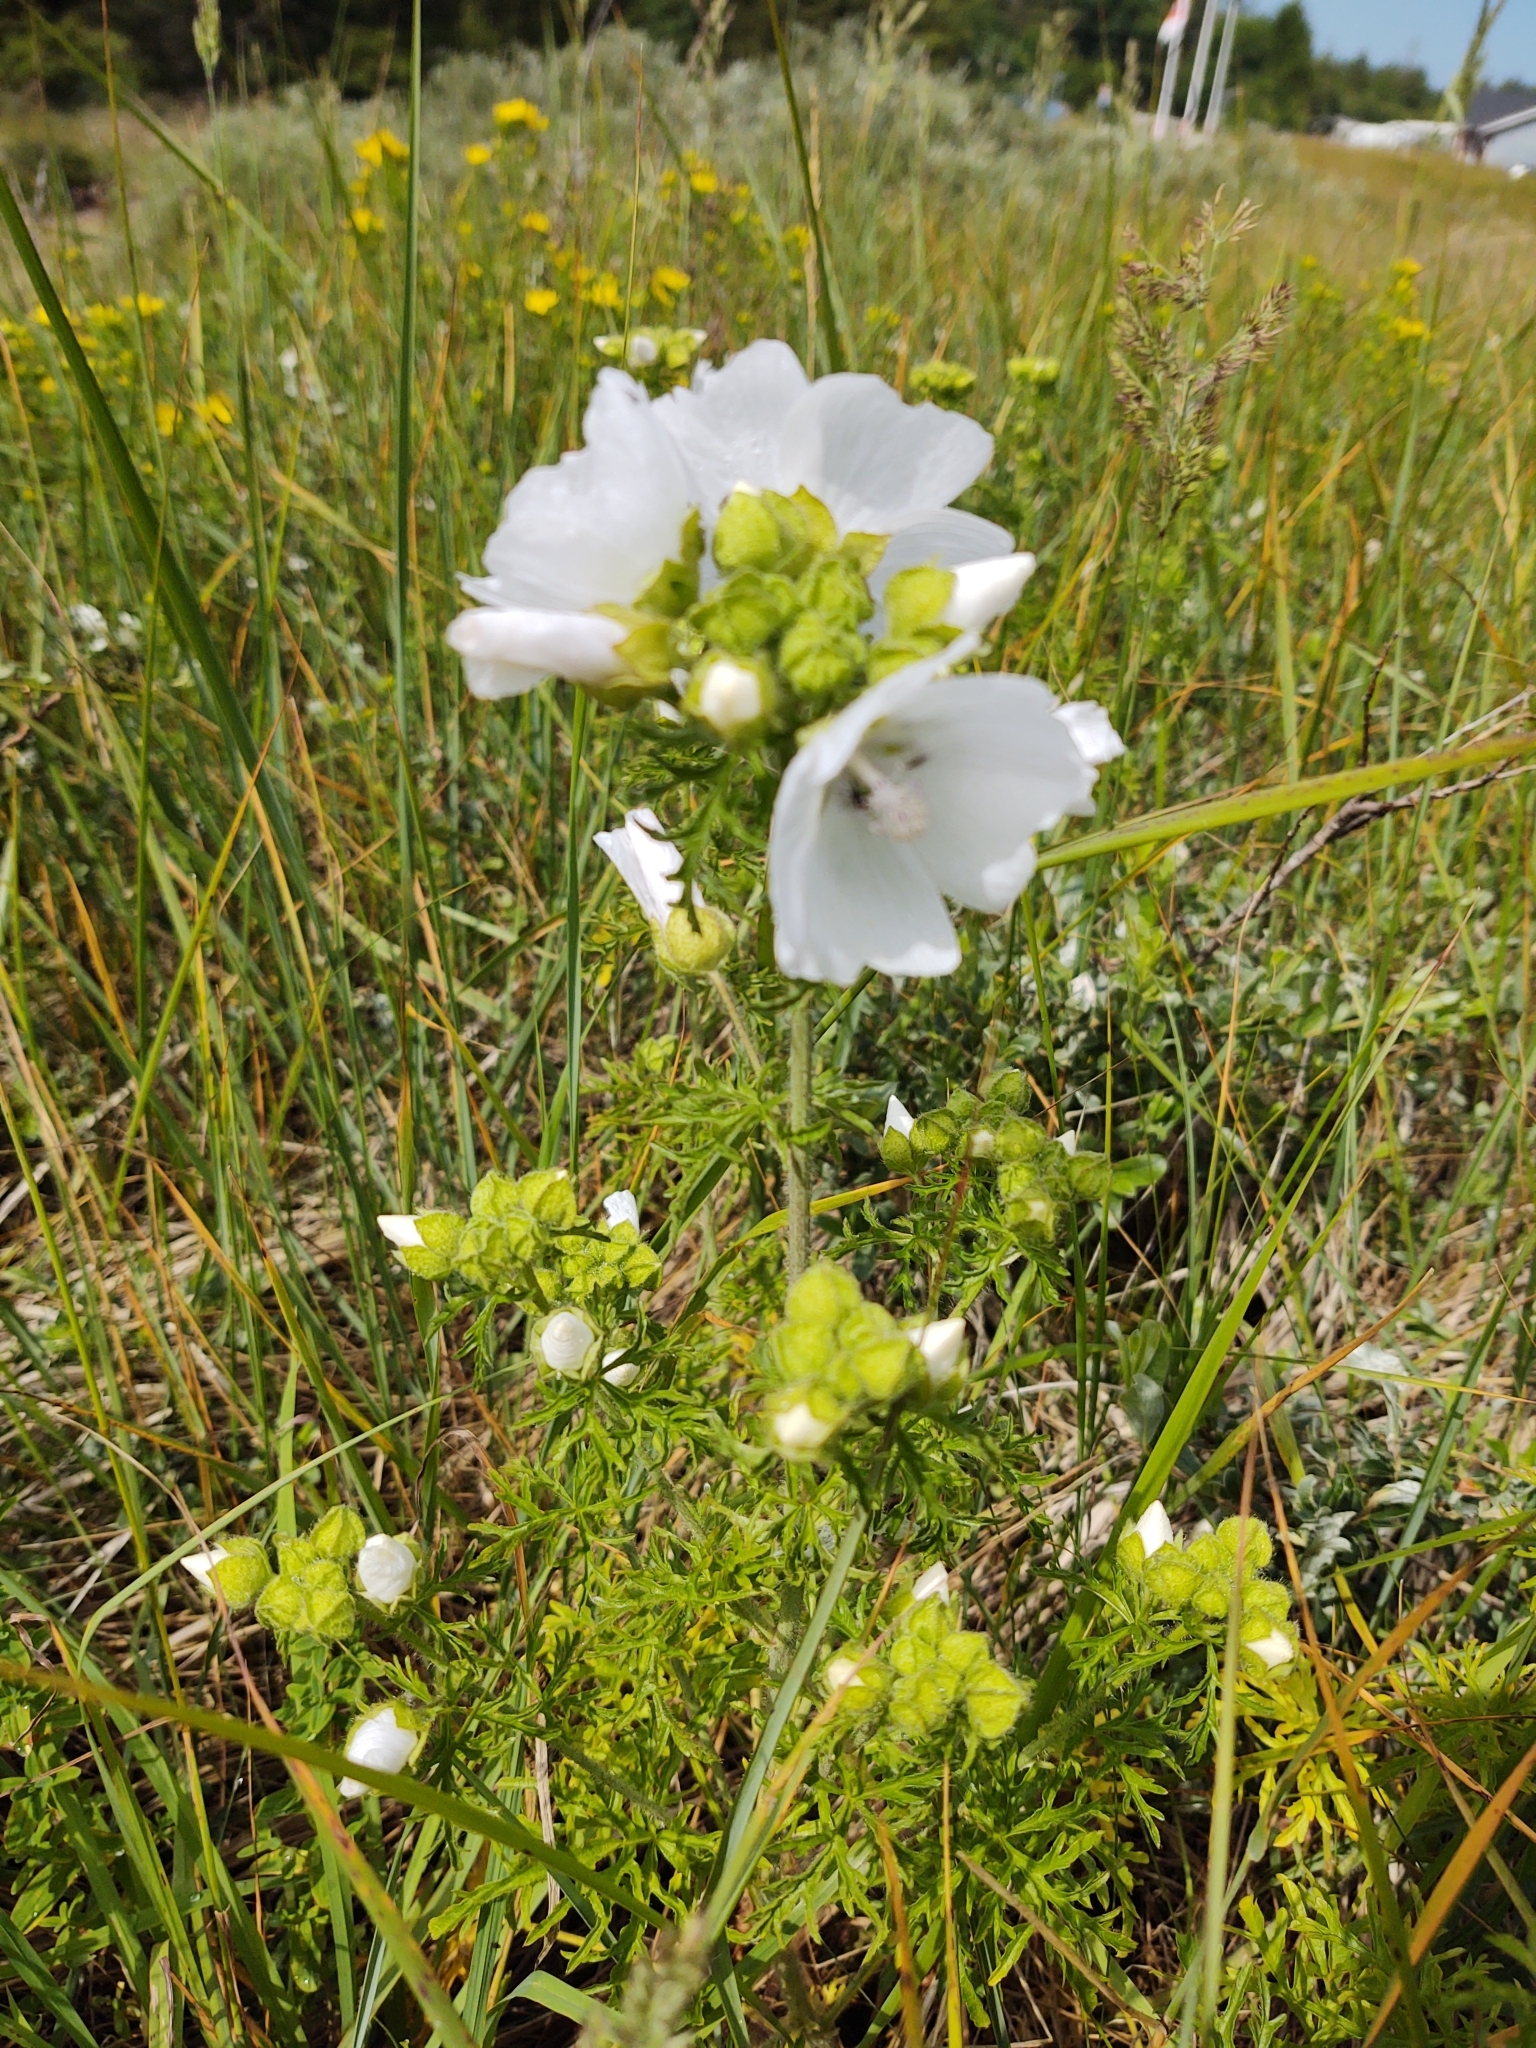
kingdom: Plantae
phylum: Tracheophyta
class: Magnoliopsida
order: Malvales
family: Malvaceae
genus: Malva
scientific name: Malva moschata
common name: Musk mallow
